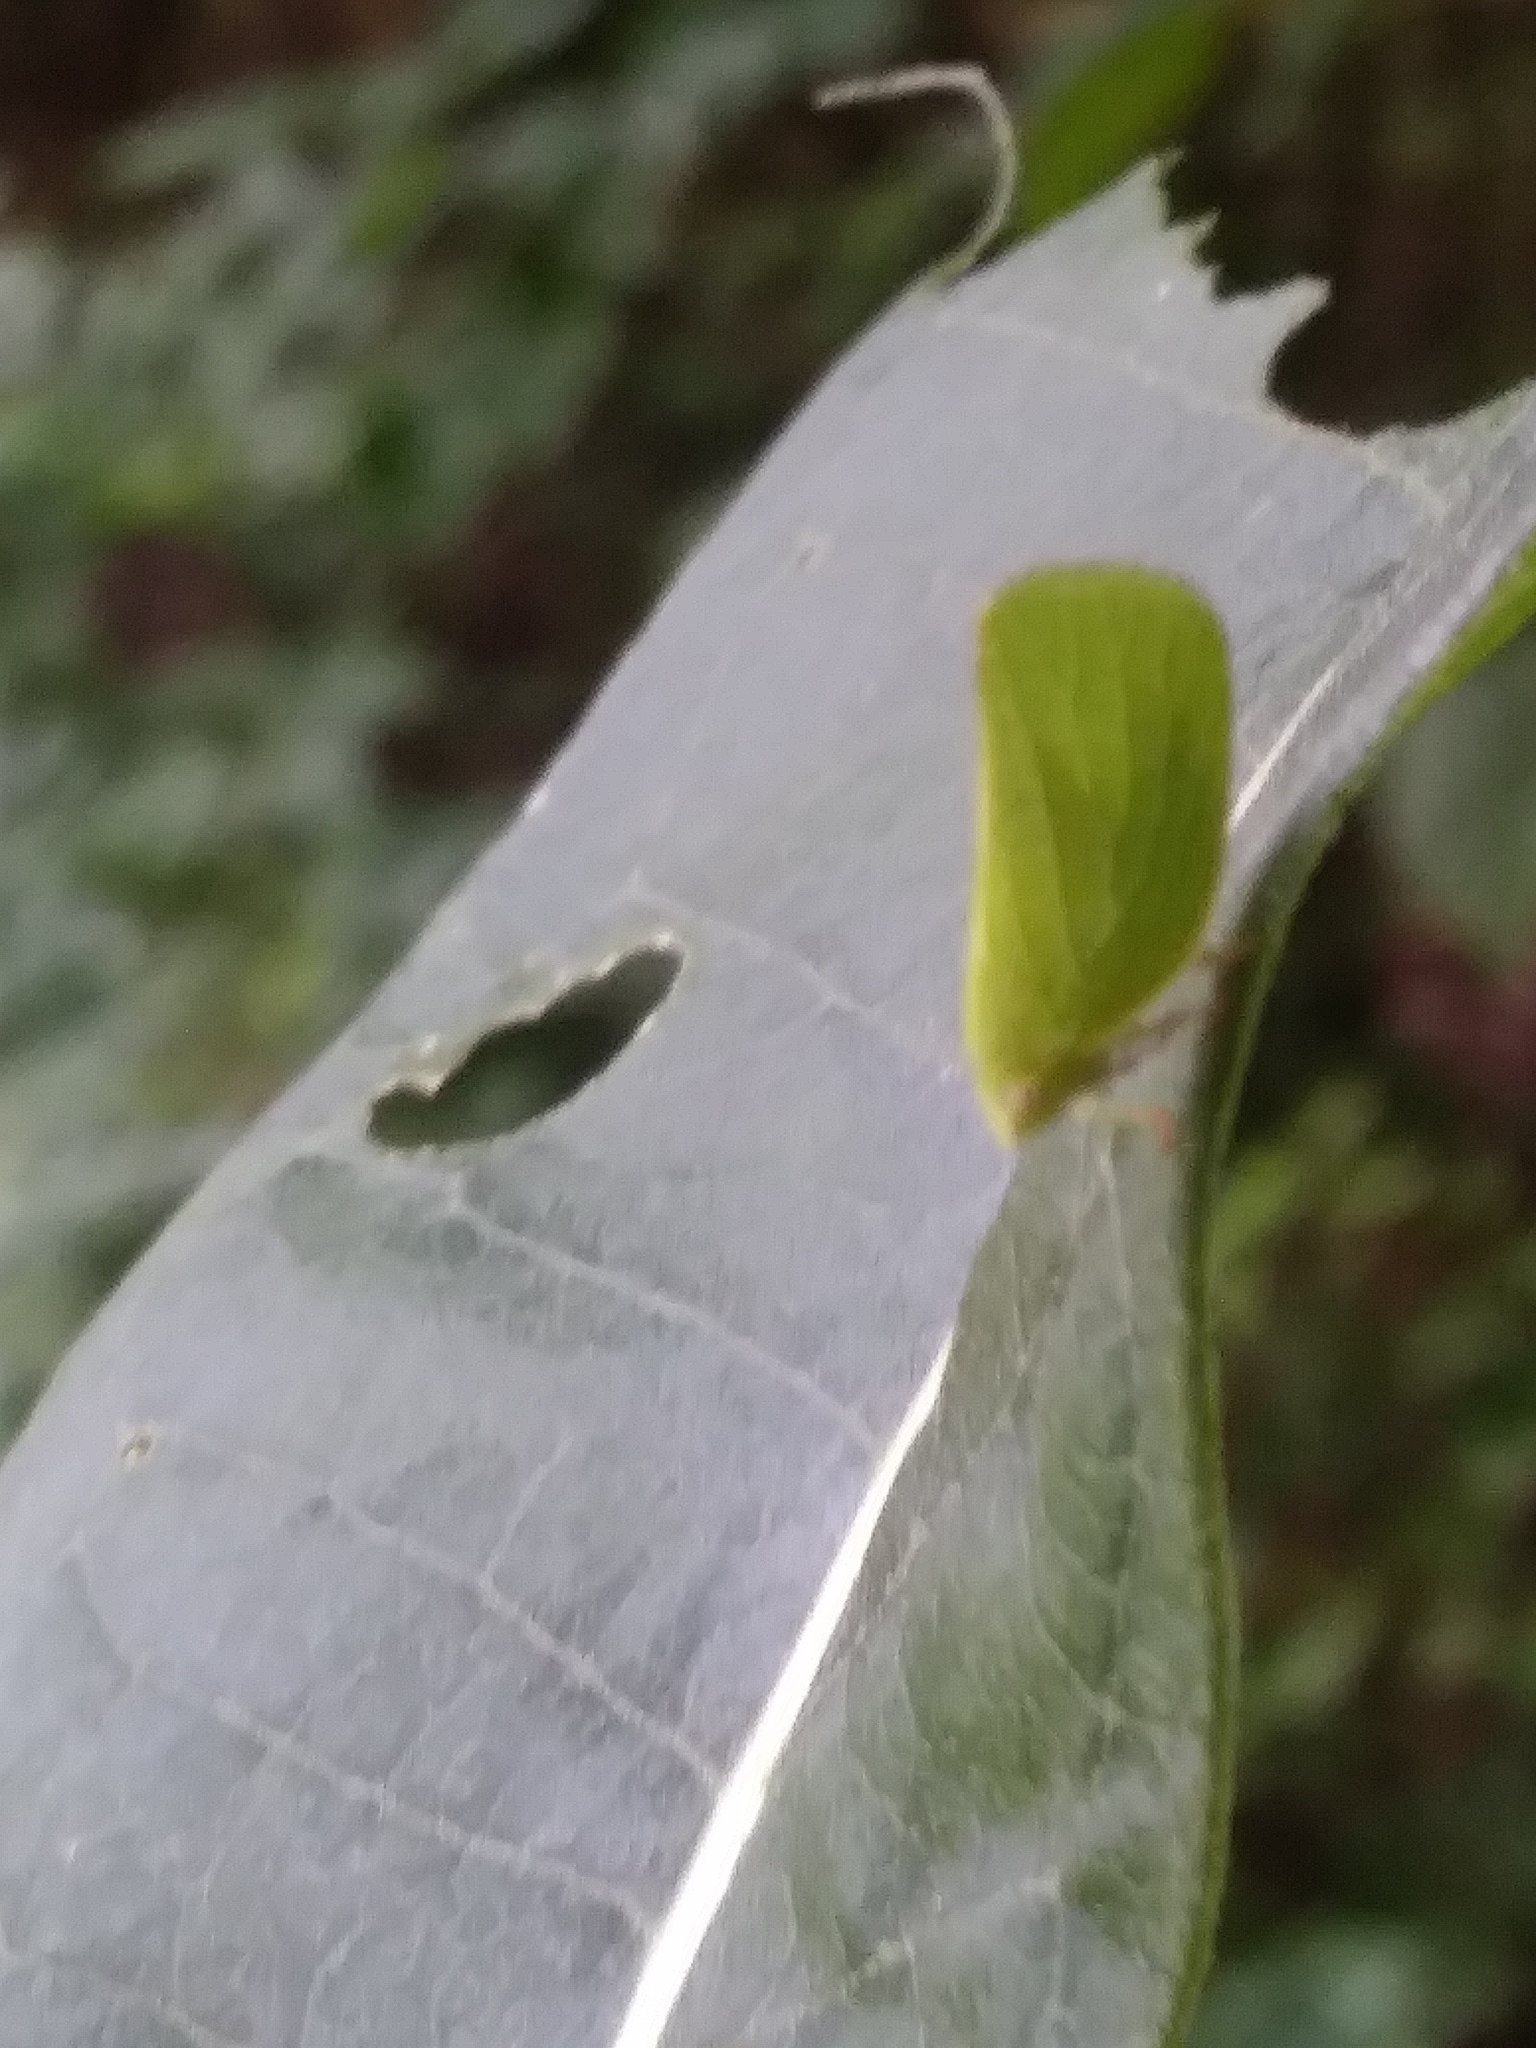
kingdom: Animalia
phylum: Arthropoda
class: Insecta
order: Hemiptera
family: Acanaloniidae
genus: Acanalonia
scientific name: Acanalonia conica
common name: Green cone-headed planthopper
